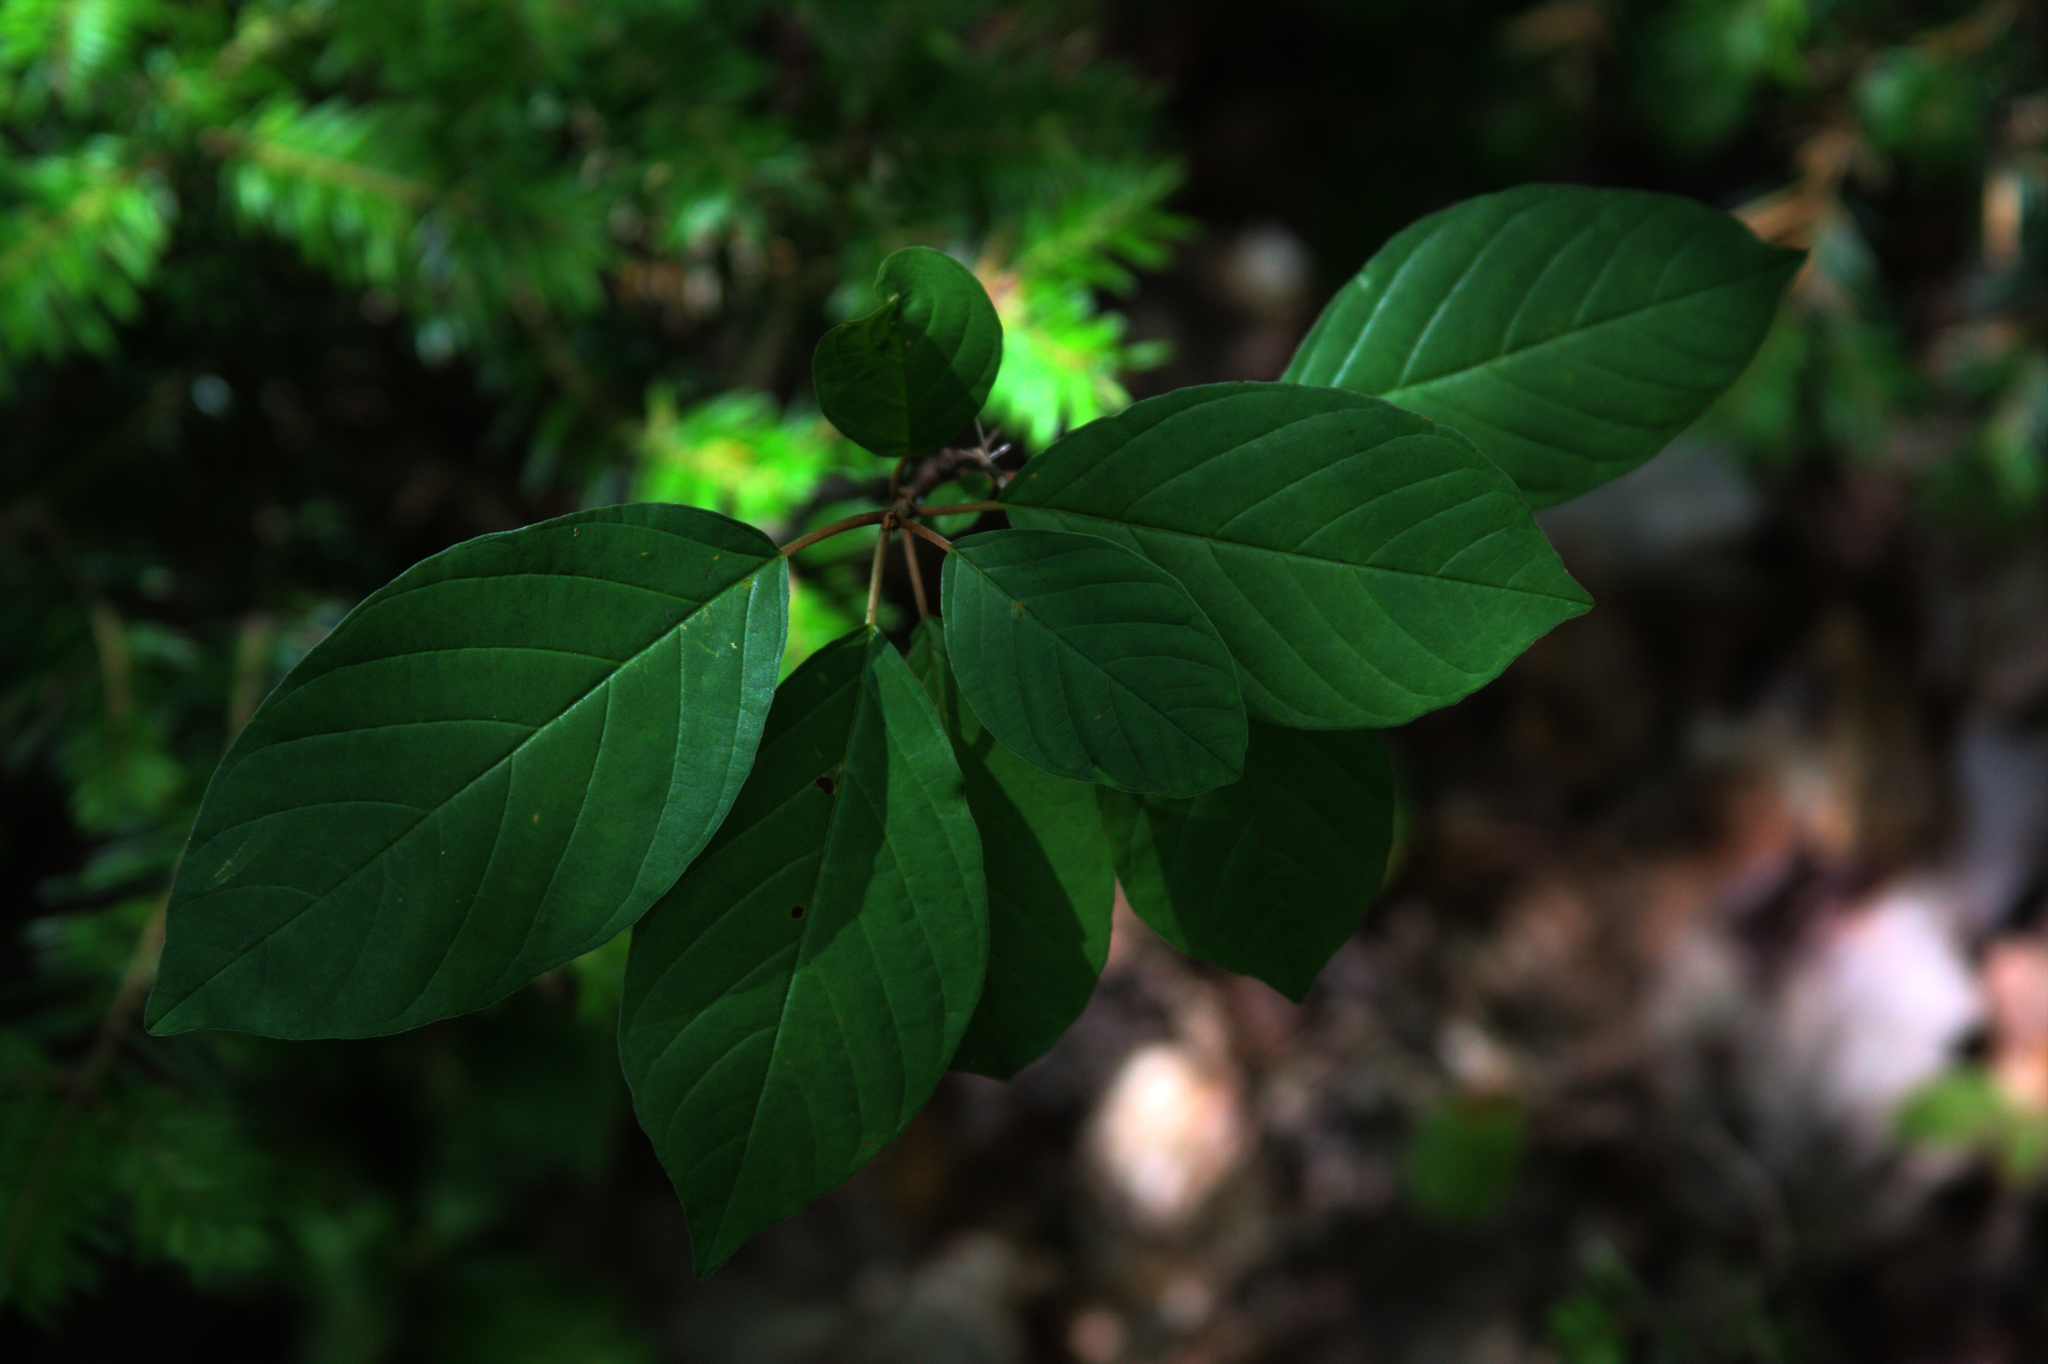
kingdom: Plantae
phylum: Tracheophyta
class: Magnoliopsida
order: Rosales
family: Rhamnaceae
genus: Frangula
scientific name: Frangula alnus
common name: Alder buckthorn
